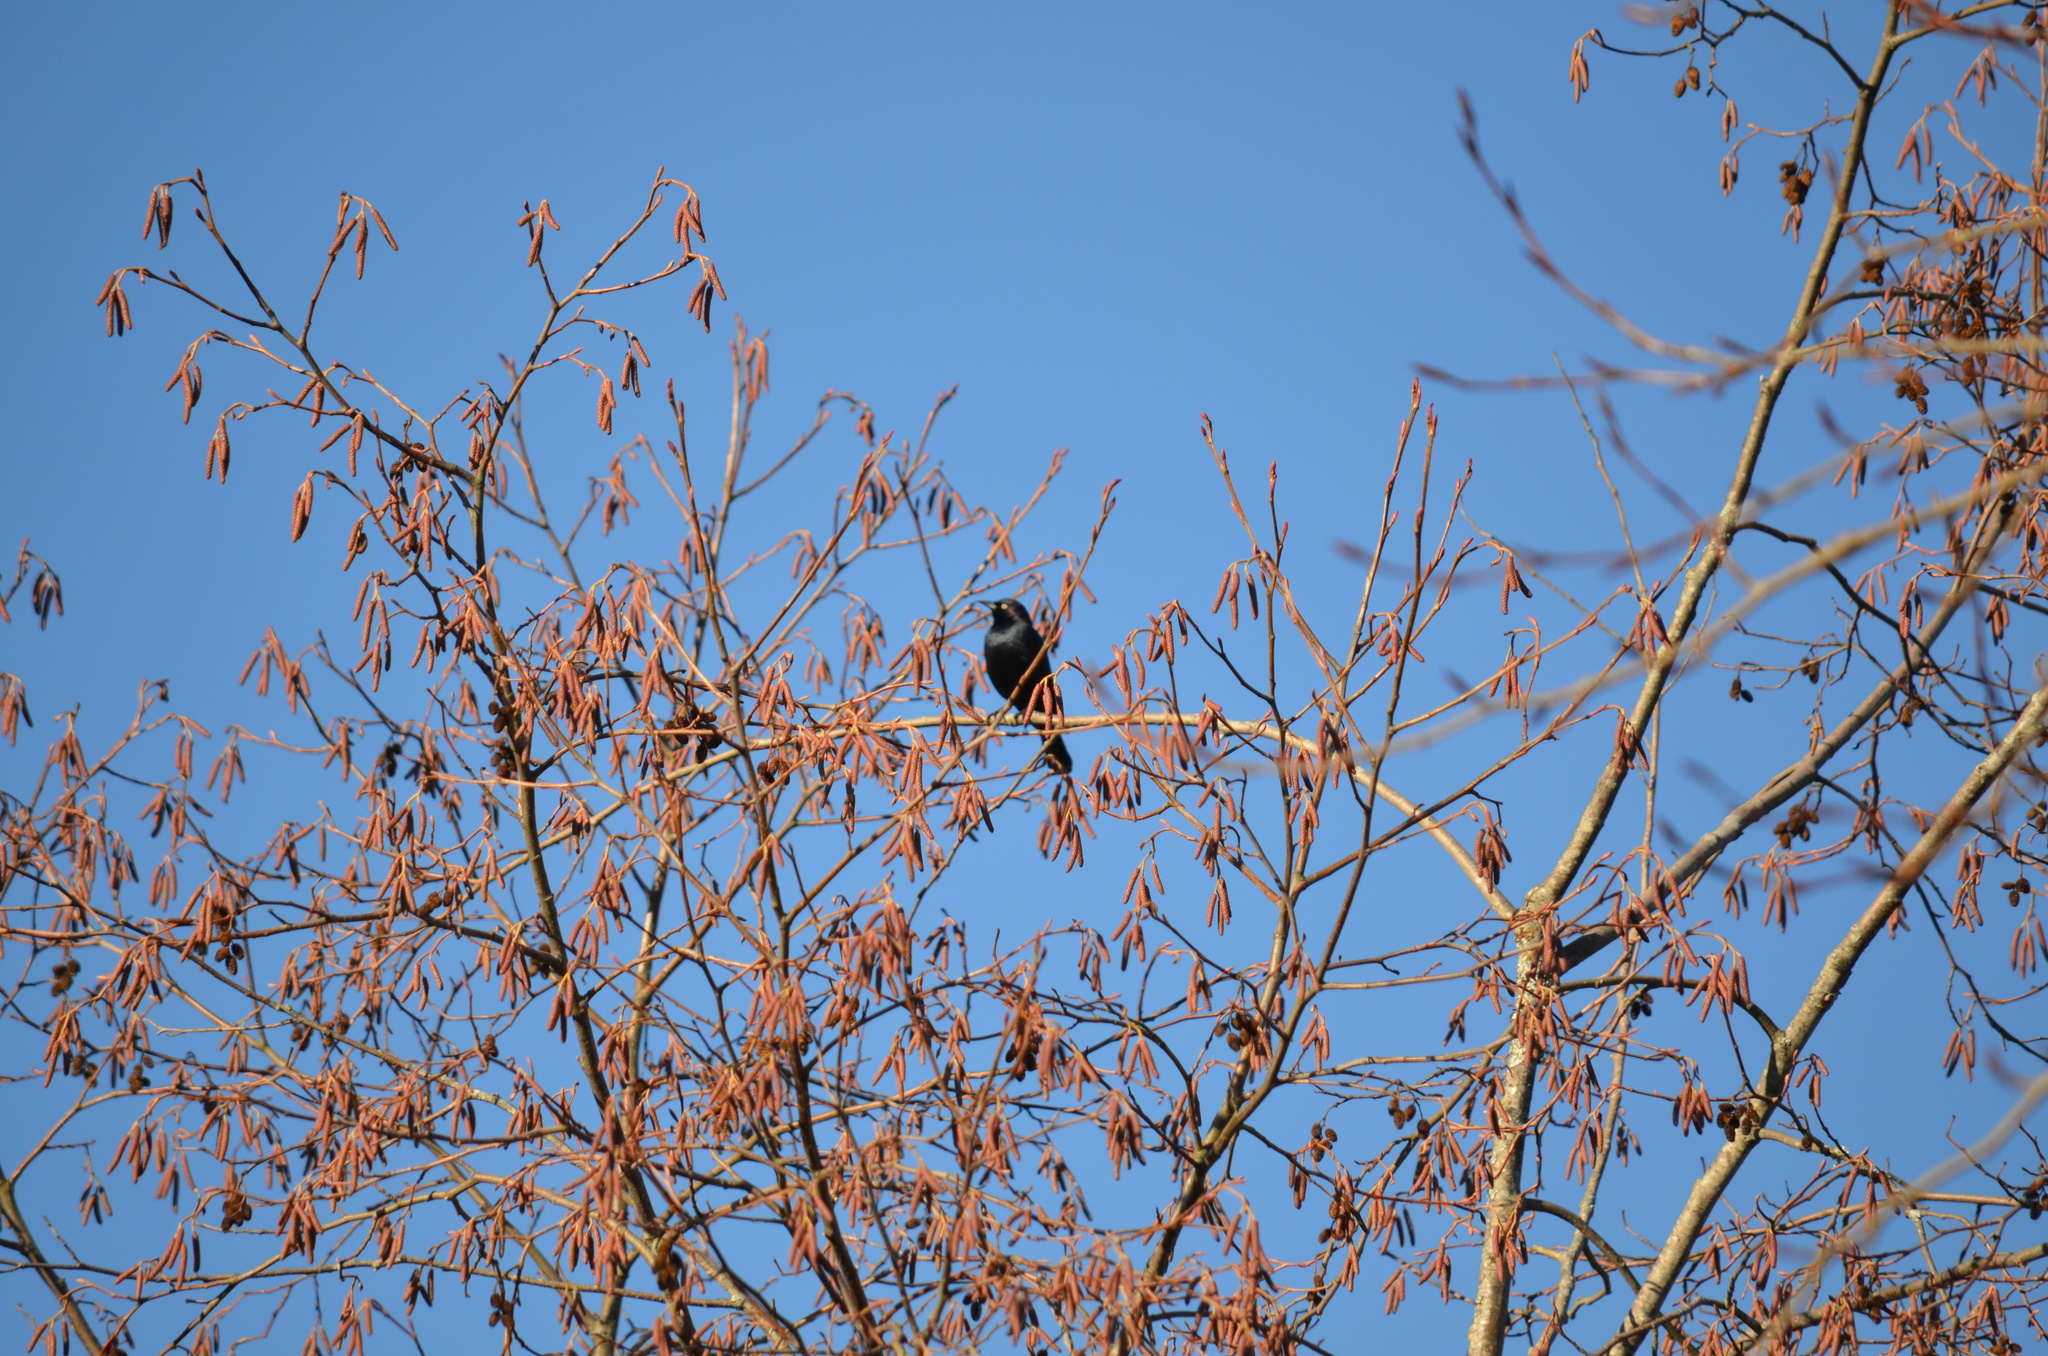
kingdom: Animalia
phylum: Chordata
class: Aves
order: Passeriformes
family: Icteridae
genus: Euphagus
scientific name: Euphagus cyanocephalus
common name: Brewer's blackbird
